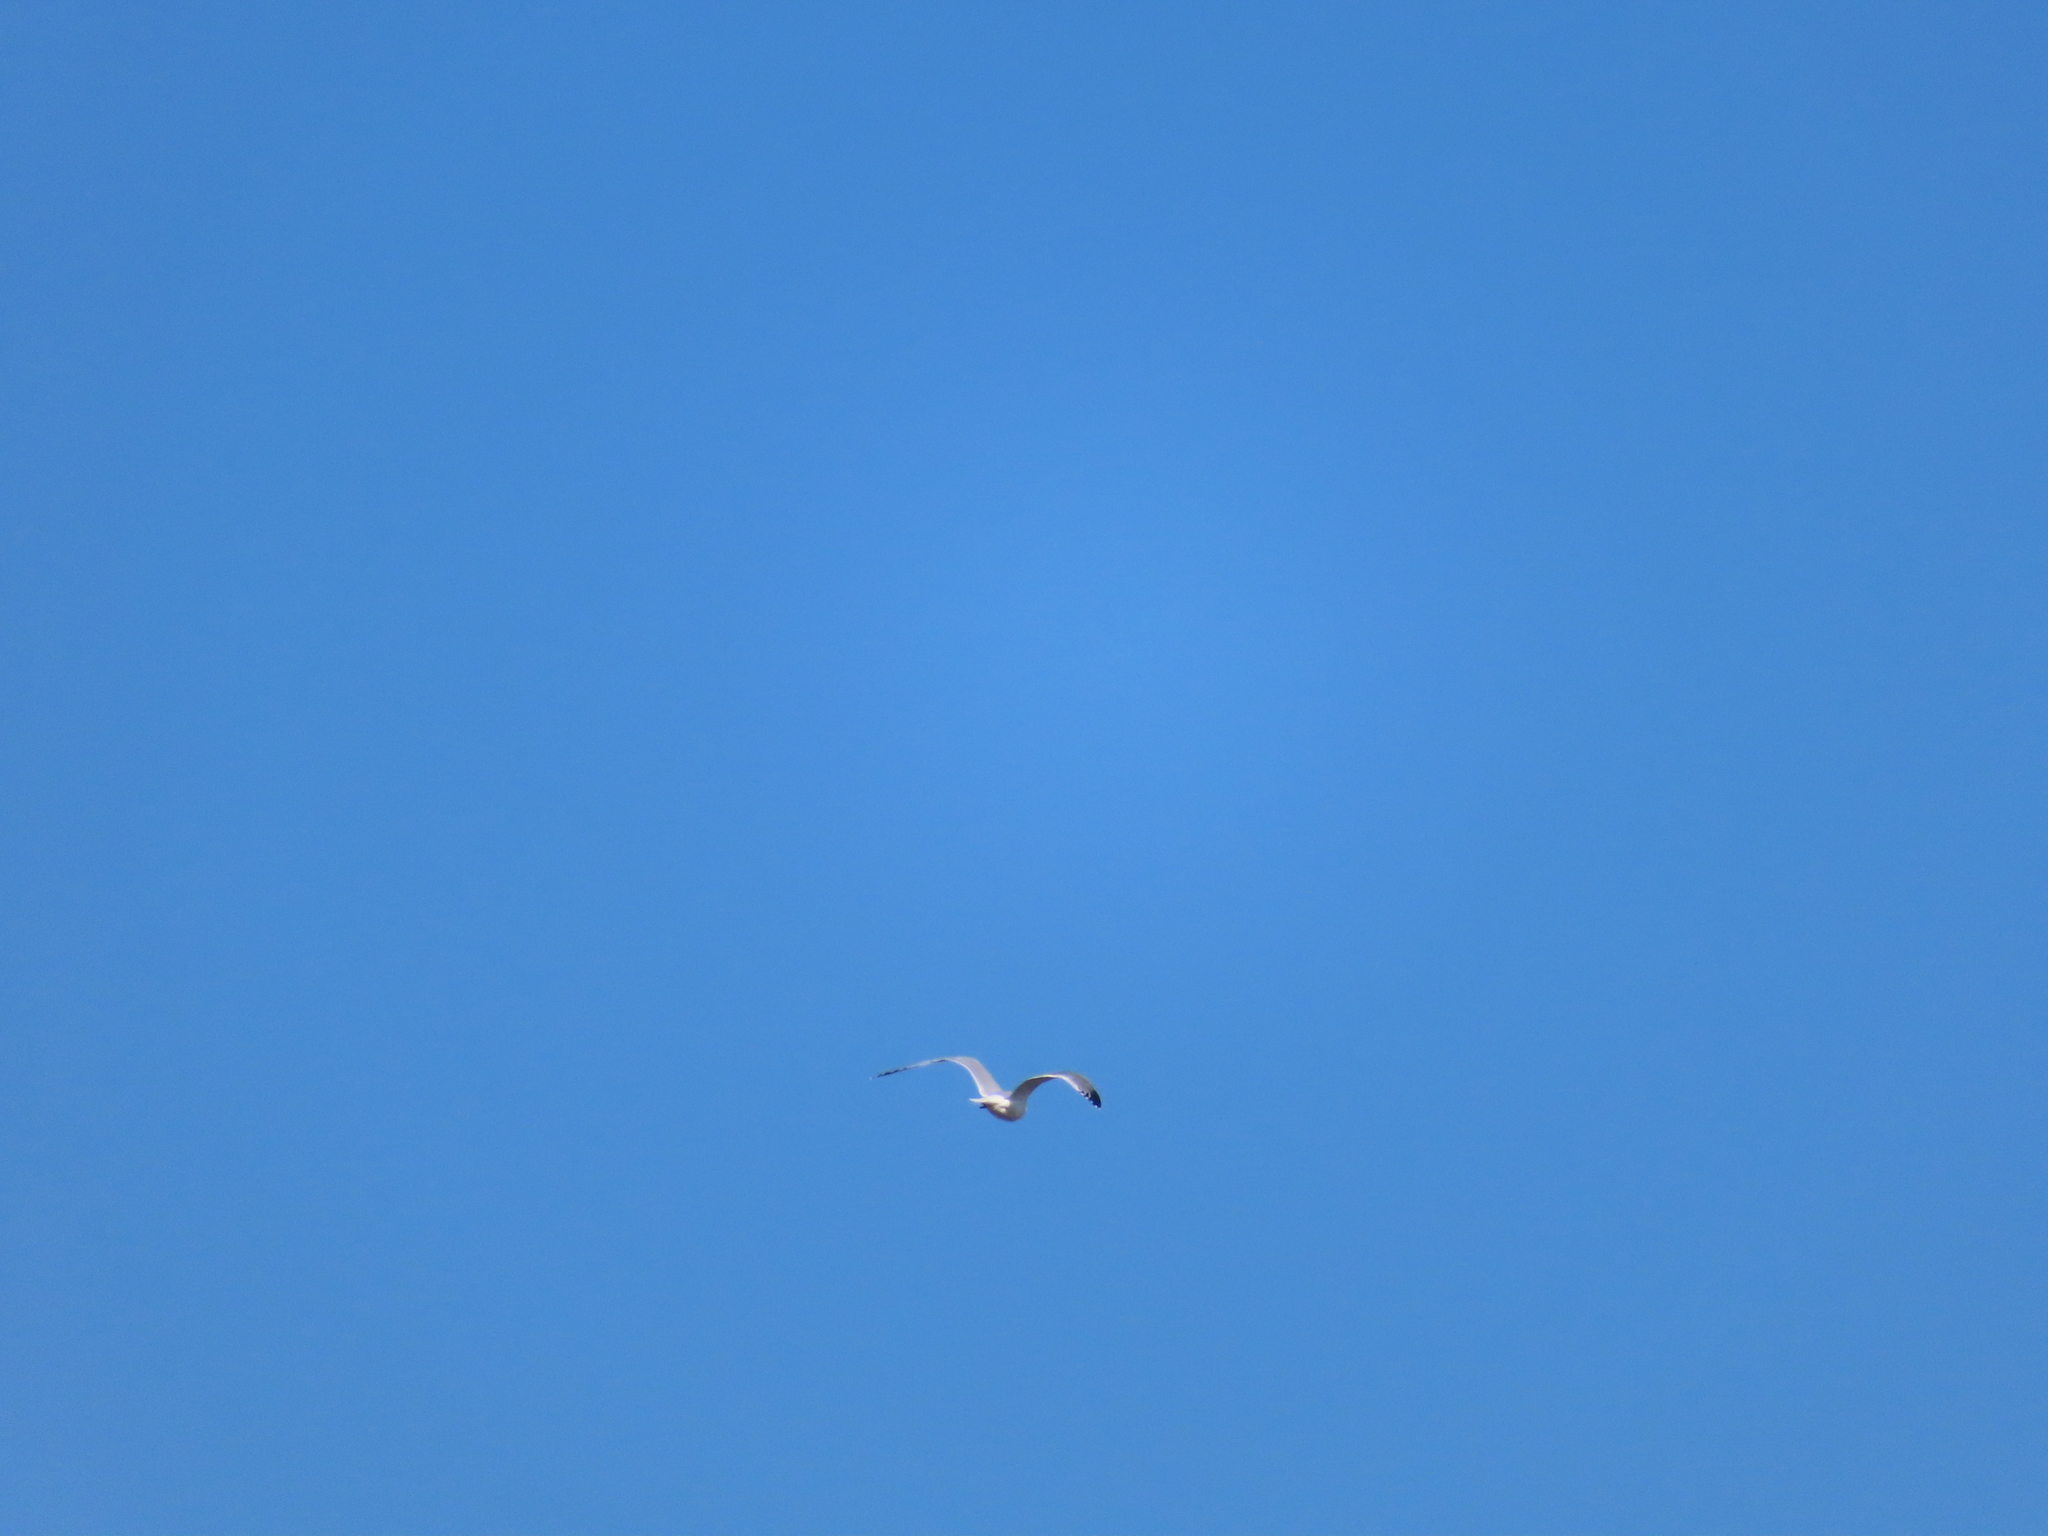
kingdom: Animalia
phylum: Chordata
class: Aves
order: Charadriiformes
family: Laridae
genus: Larus
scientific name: Larus argentatus
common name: Herring gull
